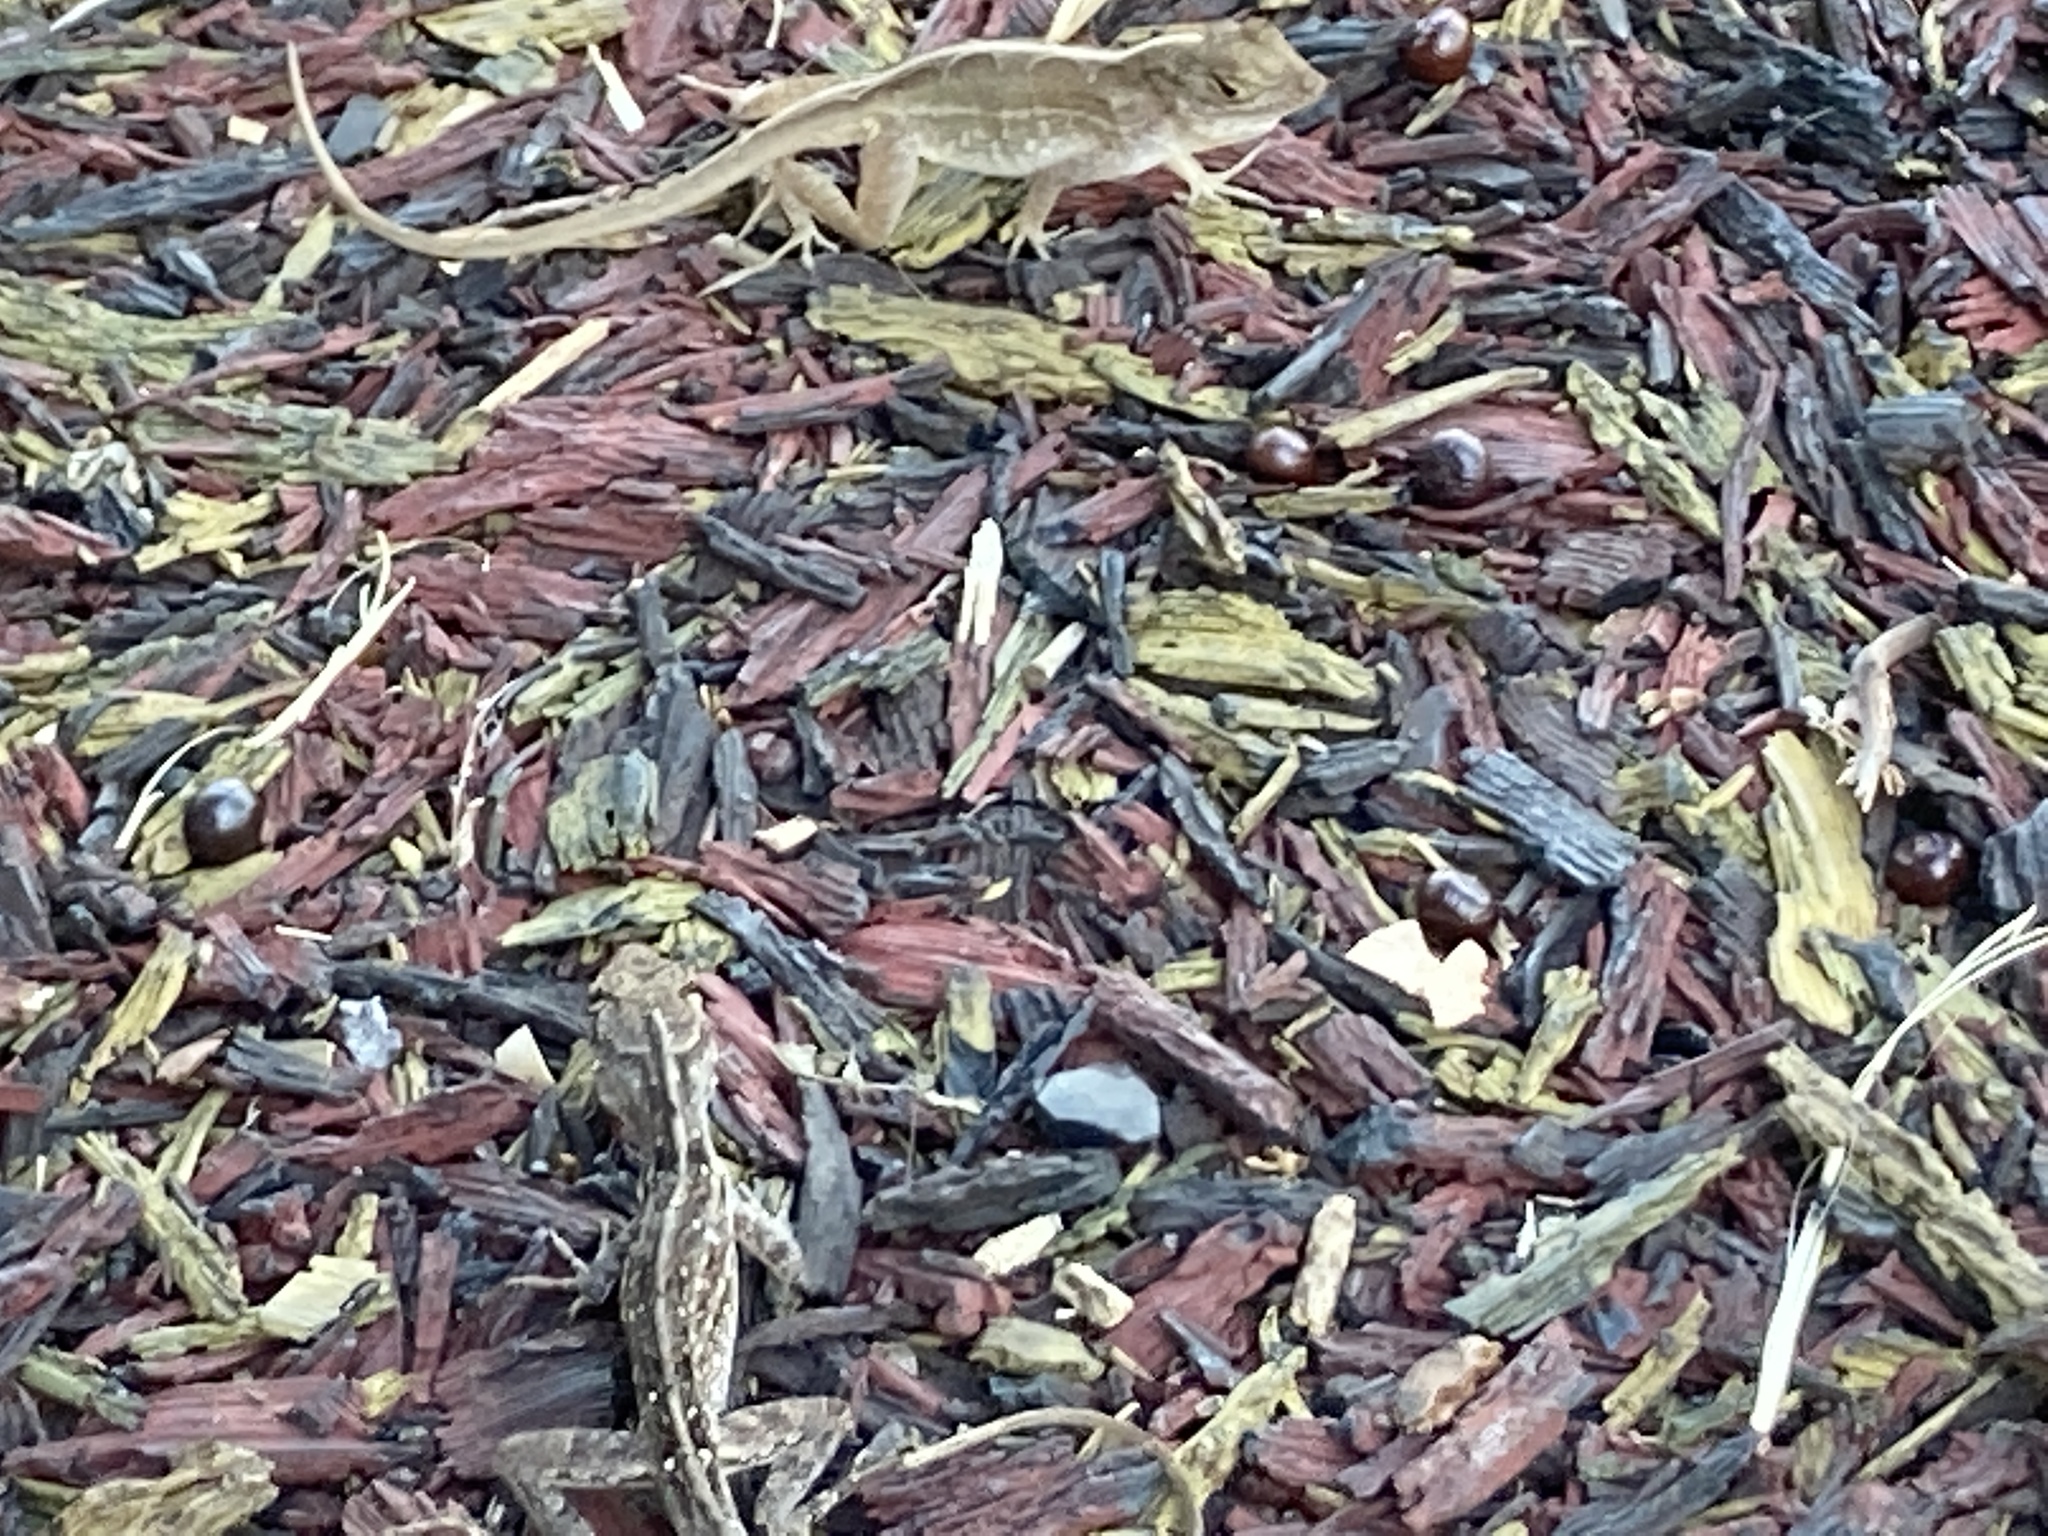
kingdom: Animalia
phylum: Chordata
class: Squamata
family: Dactyloidae
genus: Anolis
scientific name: Anolis sagrei
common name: Brown anole
